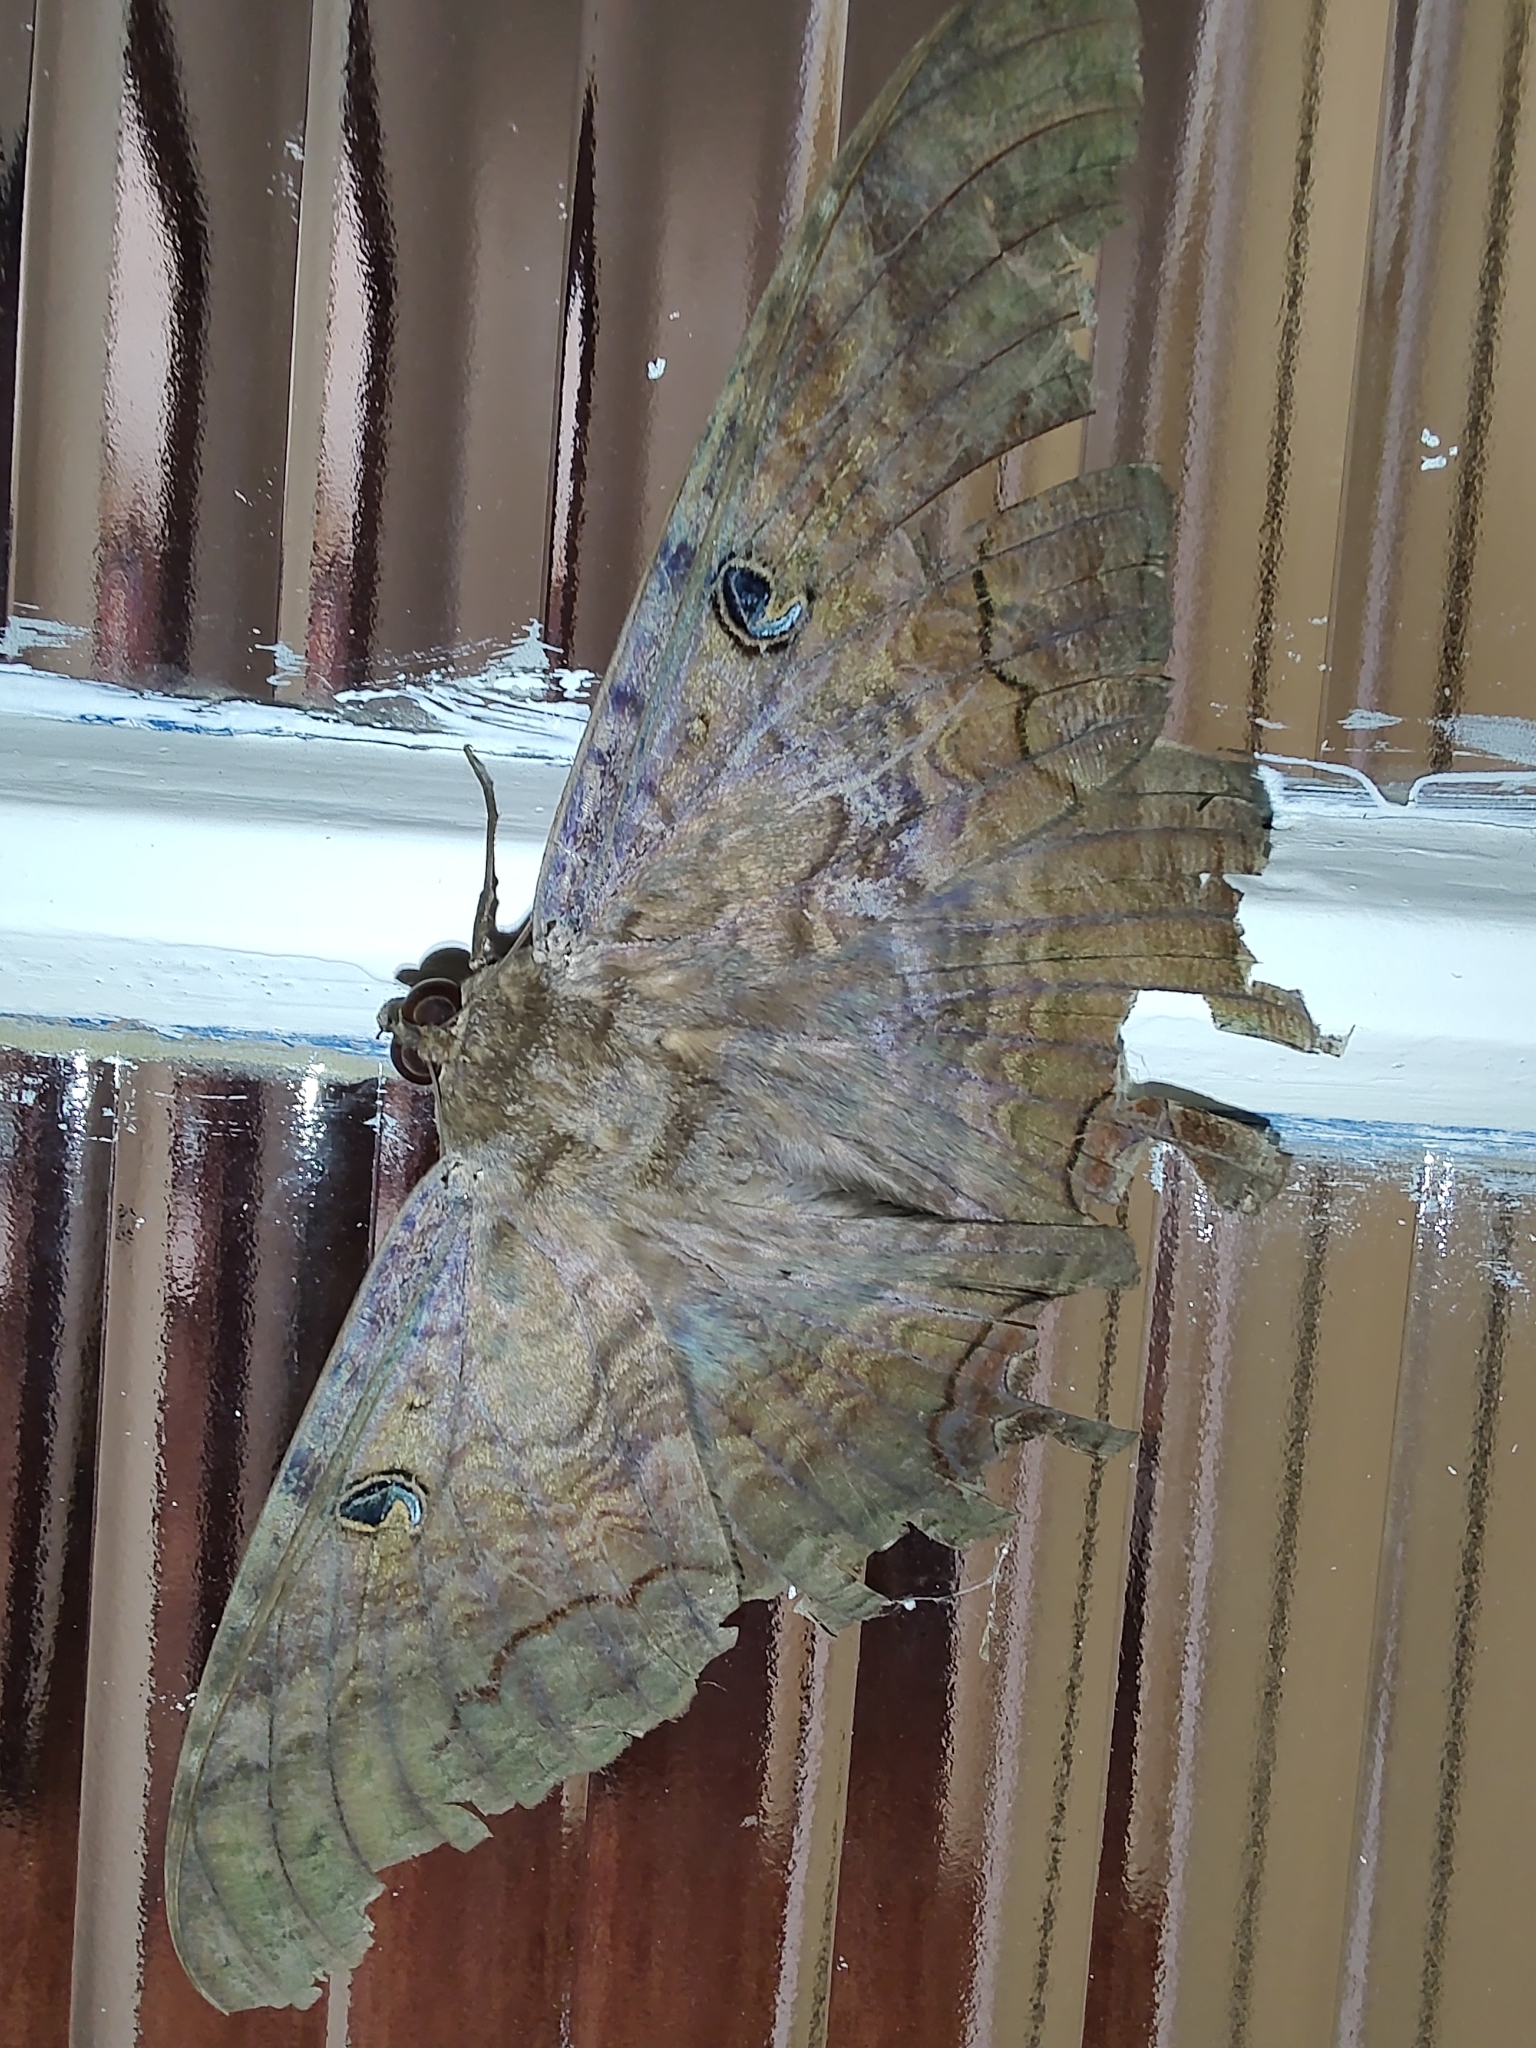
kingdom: Animalia
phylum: Arthropoda
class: Insecta
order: Lepidoptera
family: Erebidae
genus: Ascalapha
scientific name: Ascalapha odorata
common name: Black witch
